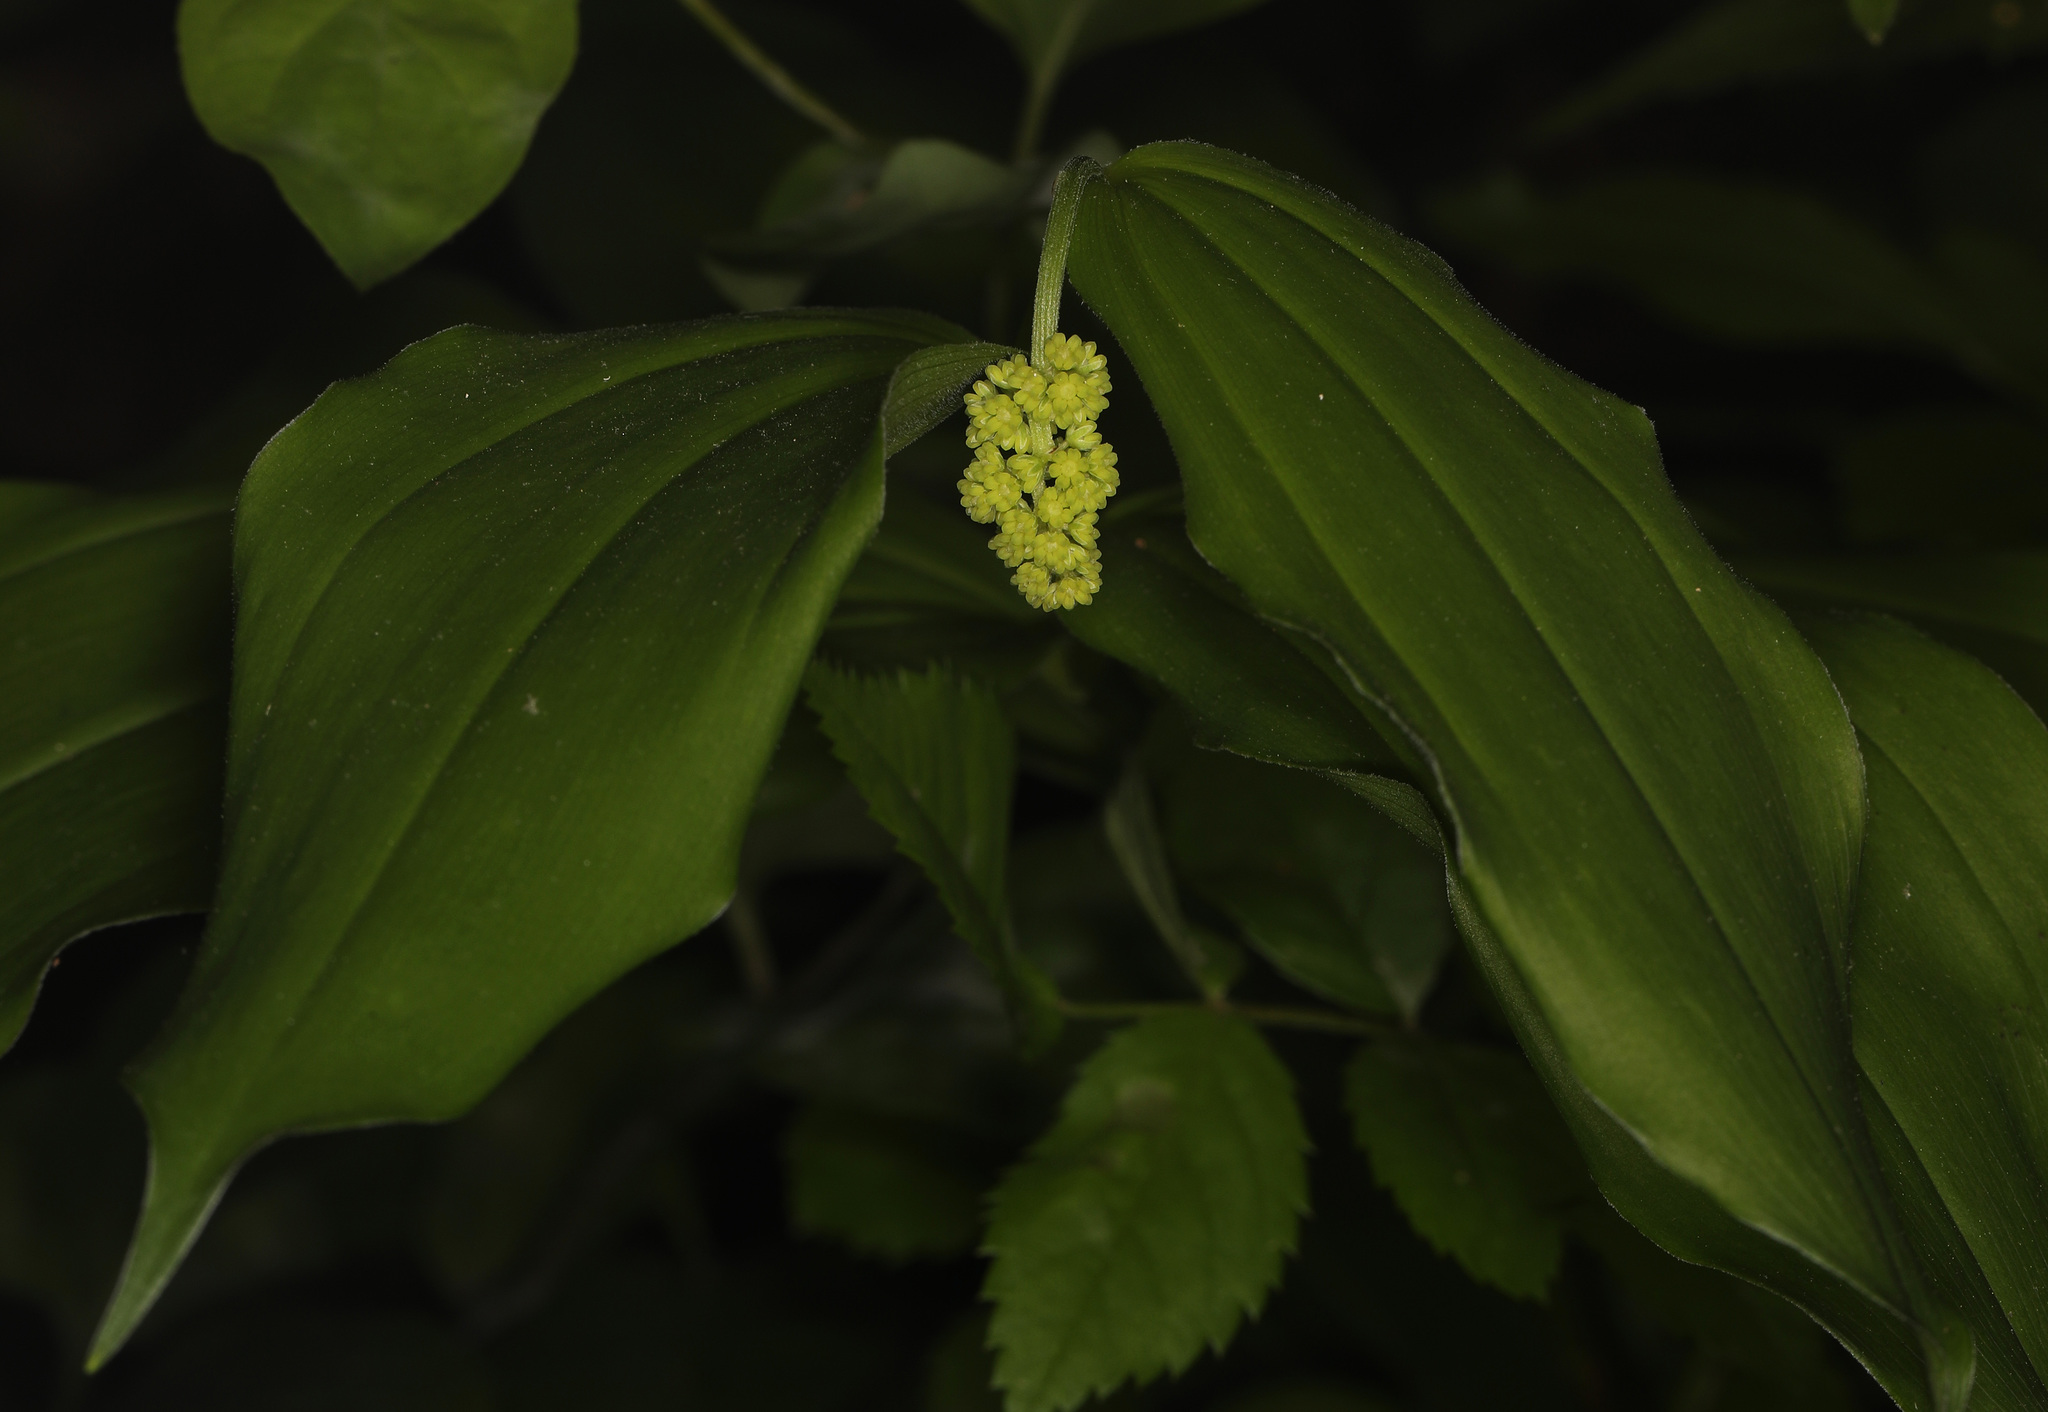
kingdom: Plantae
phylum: Tracheophyta
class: Liliopsida
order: Asparagales
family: Asparagaceae
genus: Maianthemum
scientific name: Maianthemum racemosum
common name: False spikenard
